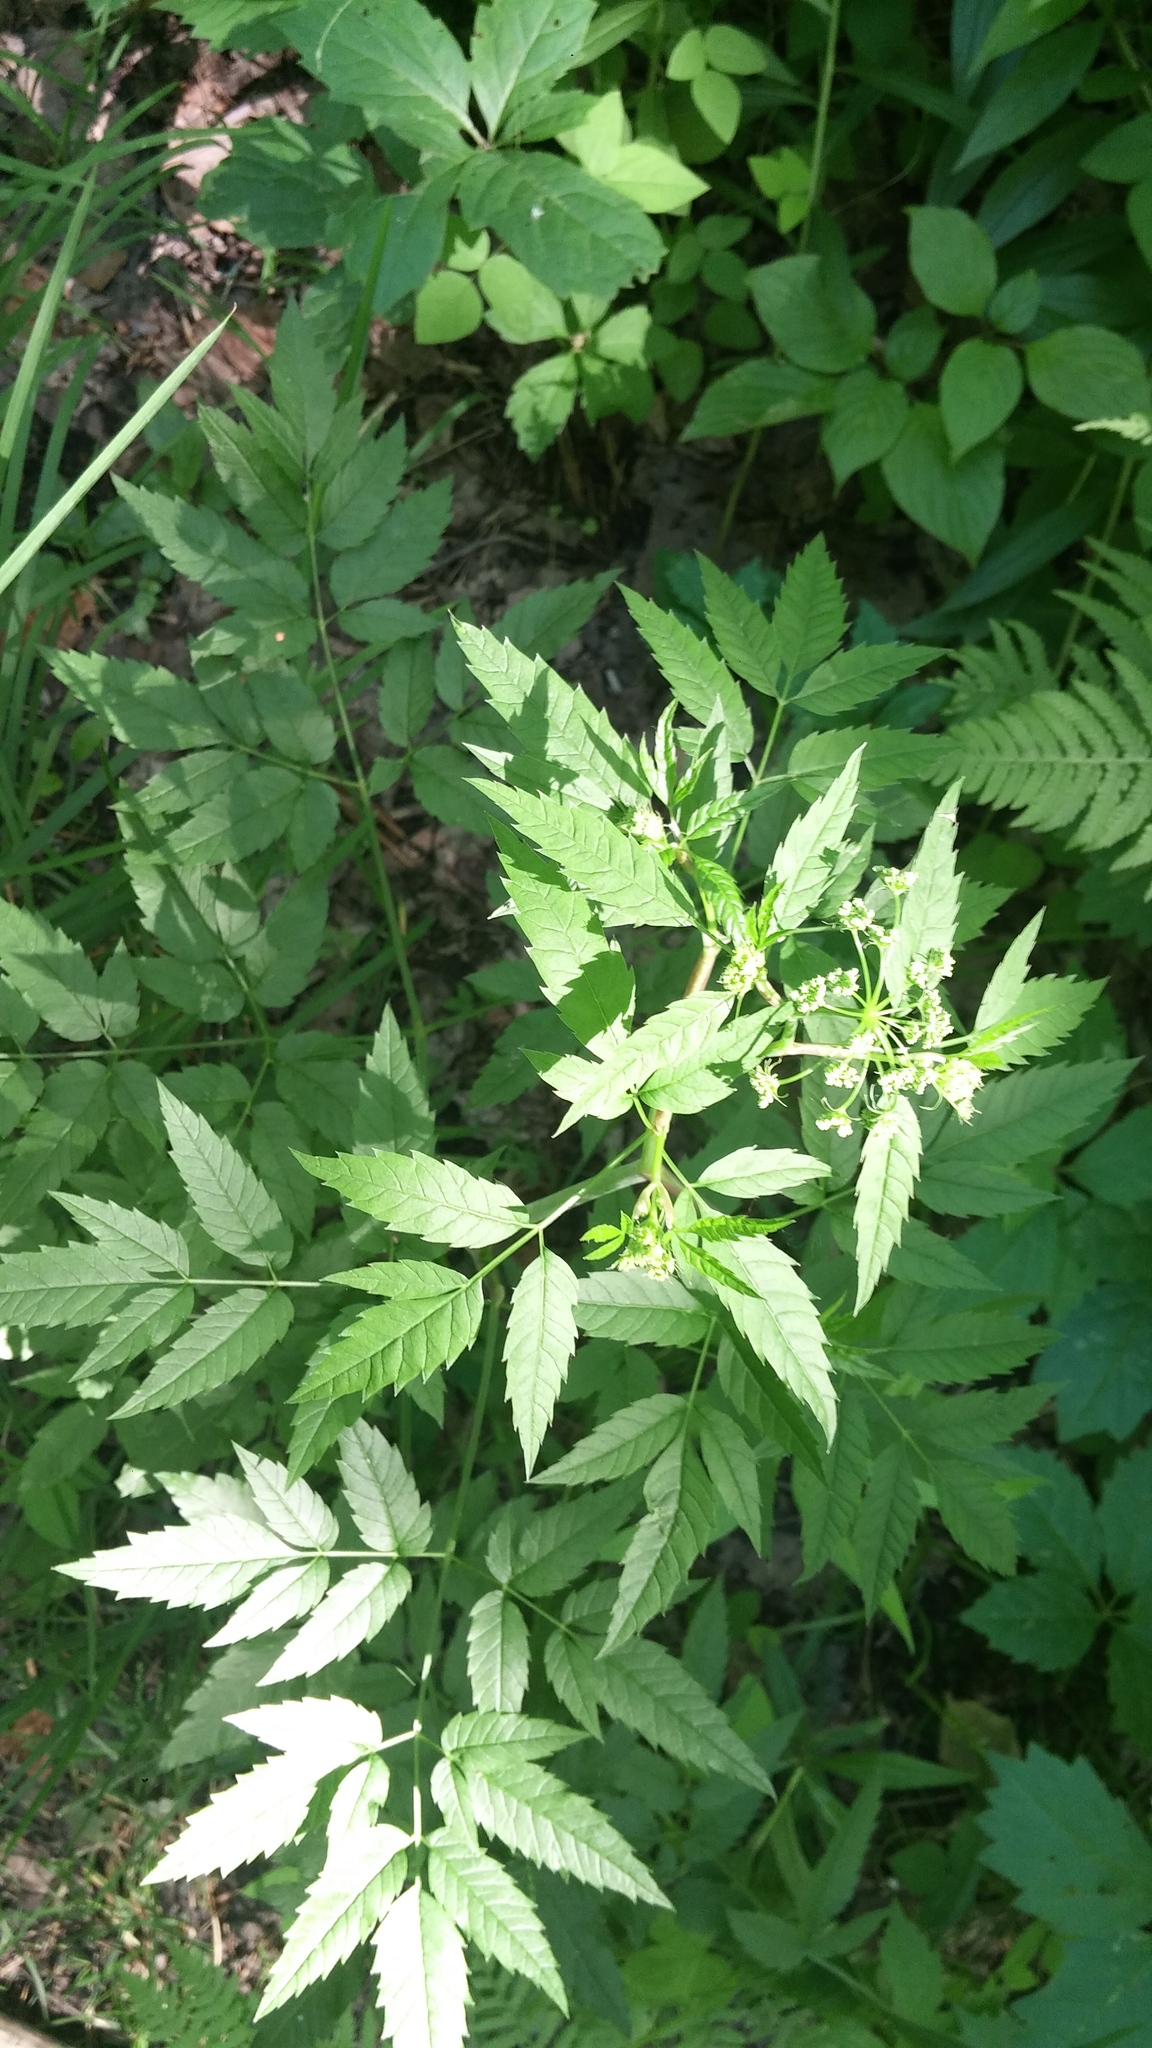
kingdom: Plantae
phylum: Tracheophyta
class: Magnoliopsida
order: Apiales
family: Apiaceae
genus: Cicuta
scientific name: Cicuta maculata
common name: Spotted cowbane
